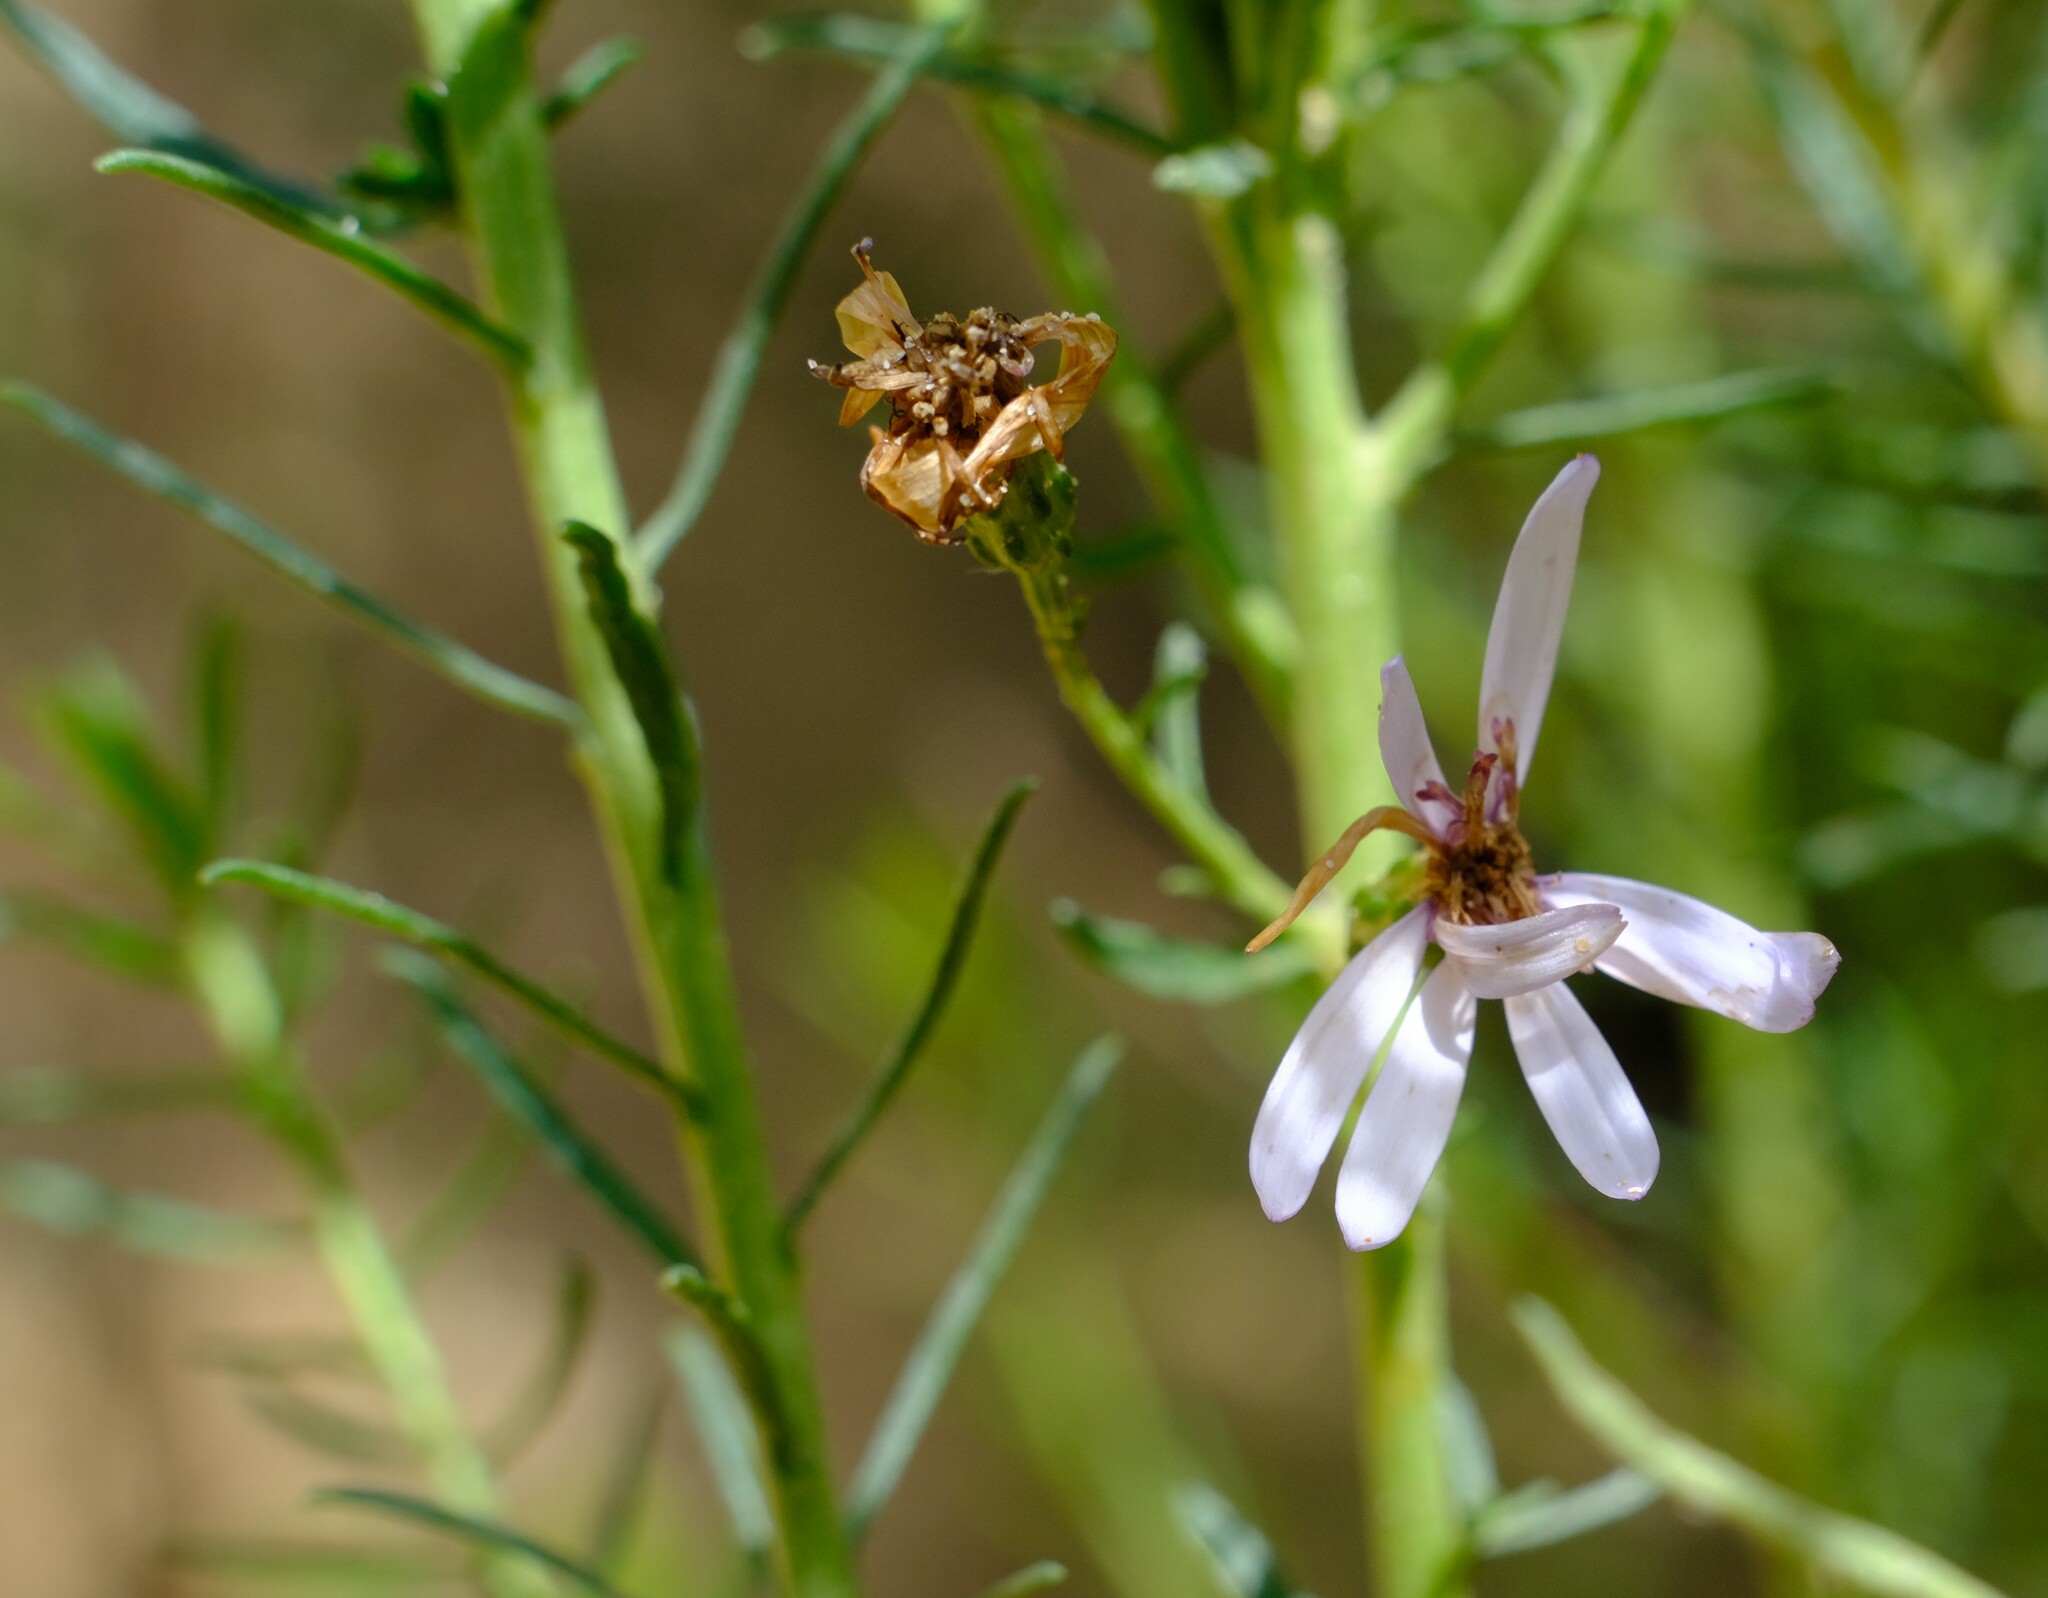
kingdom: Plantae
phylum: Tracheophyta
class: Magnoliopsida
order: Asterales
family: Asteraceae
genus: Olearia
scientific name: Olearia glutinosa
